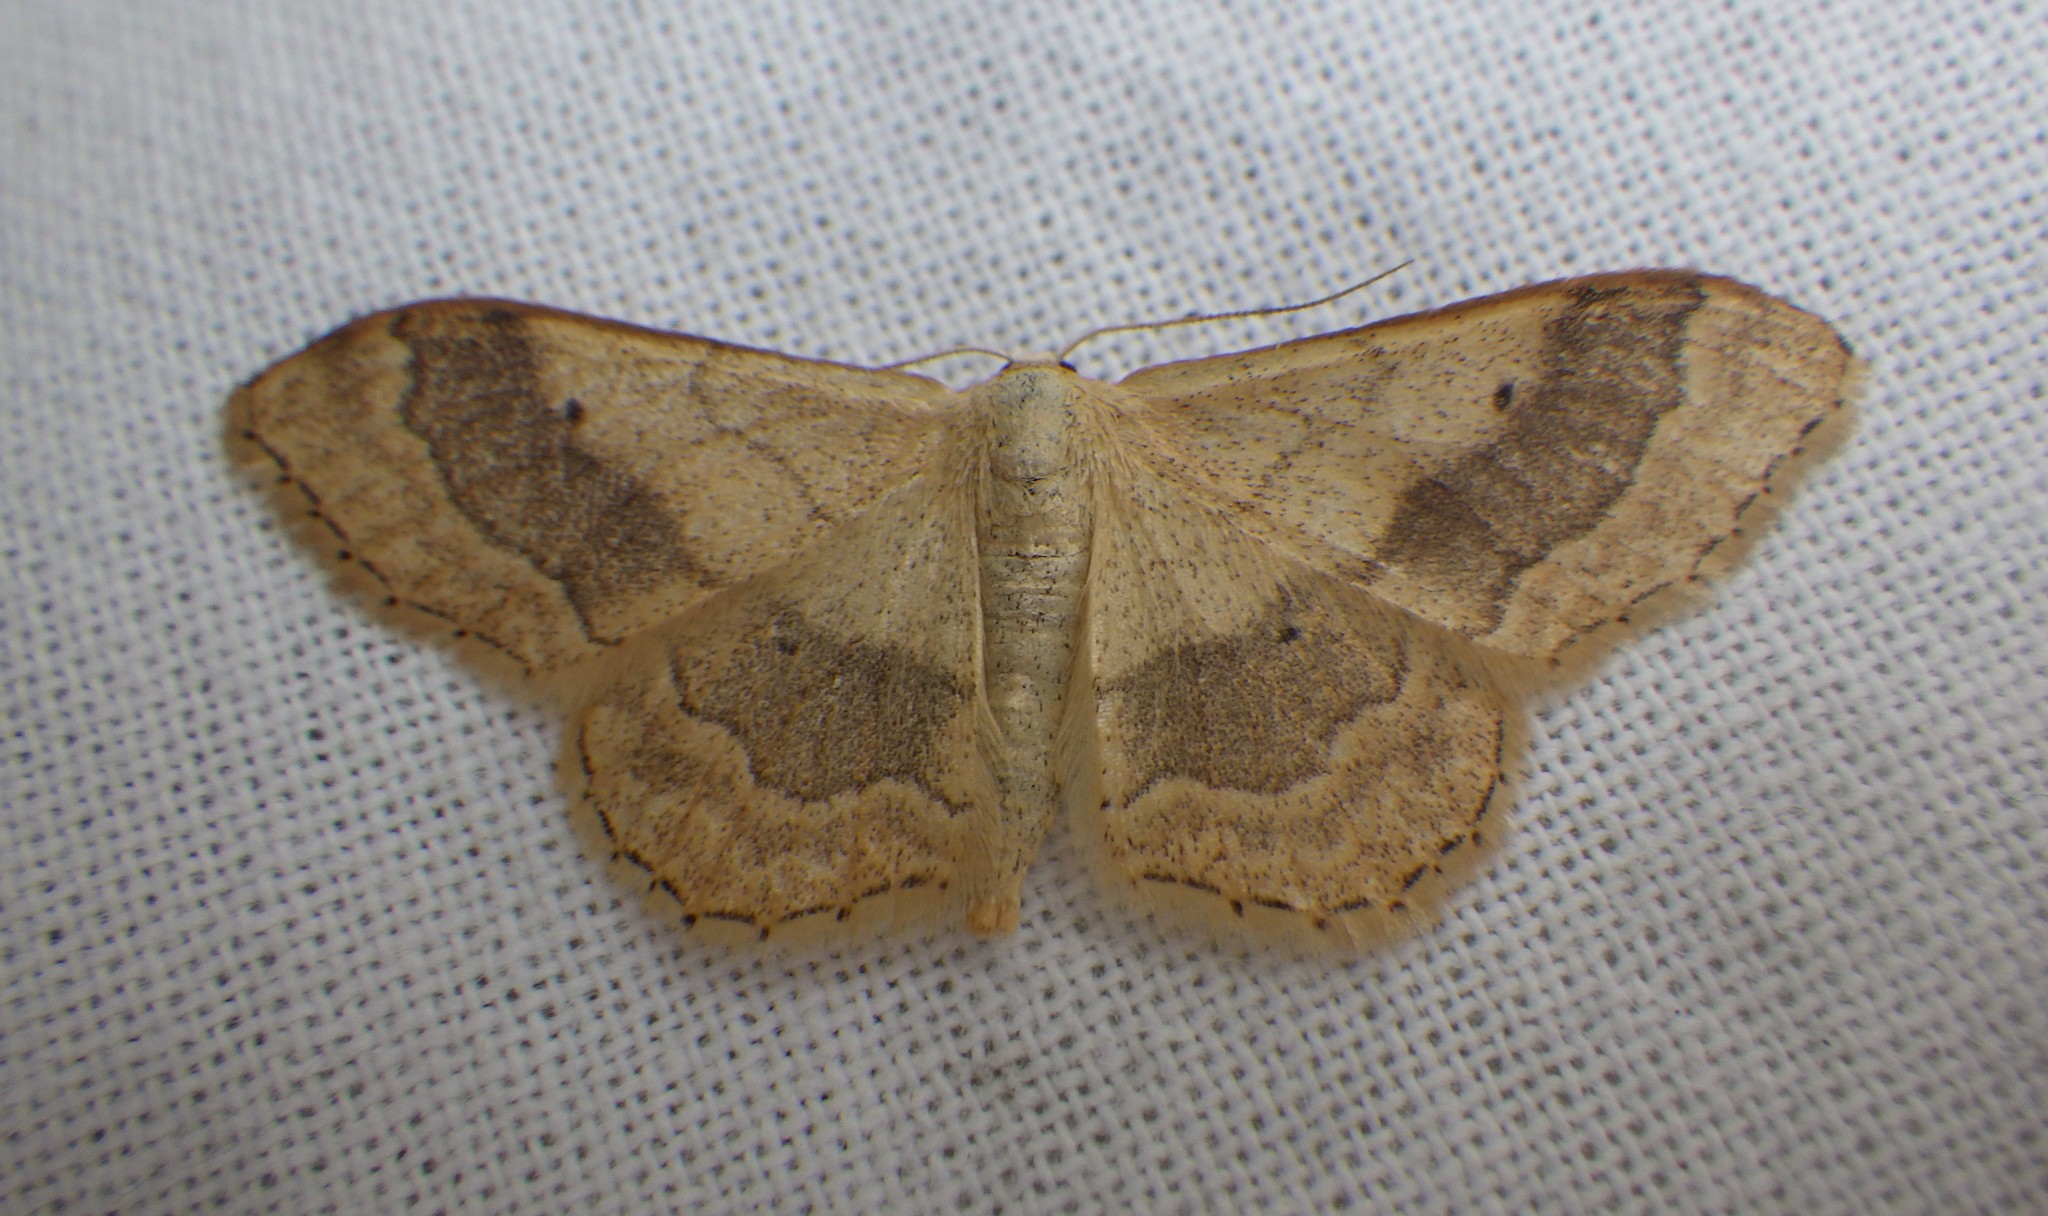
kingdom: Animalia
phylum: Arthropoda
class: Insecta
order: Lepidoptera
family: Geometridae
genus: Idaea
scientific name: Idaea aversata
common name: Riband wave
